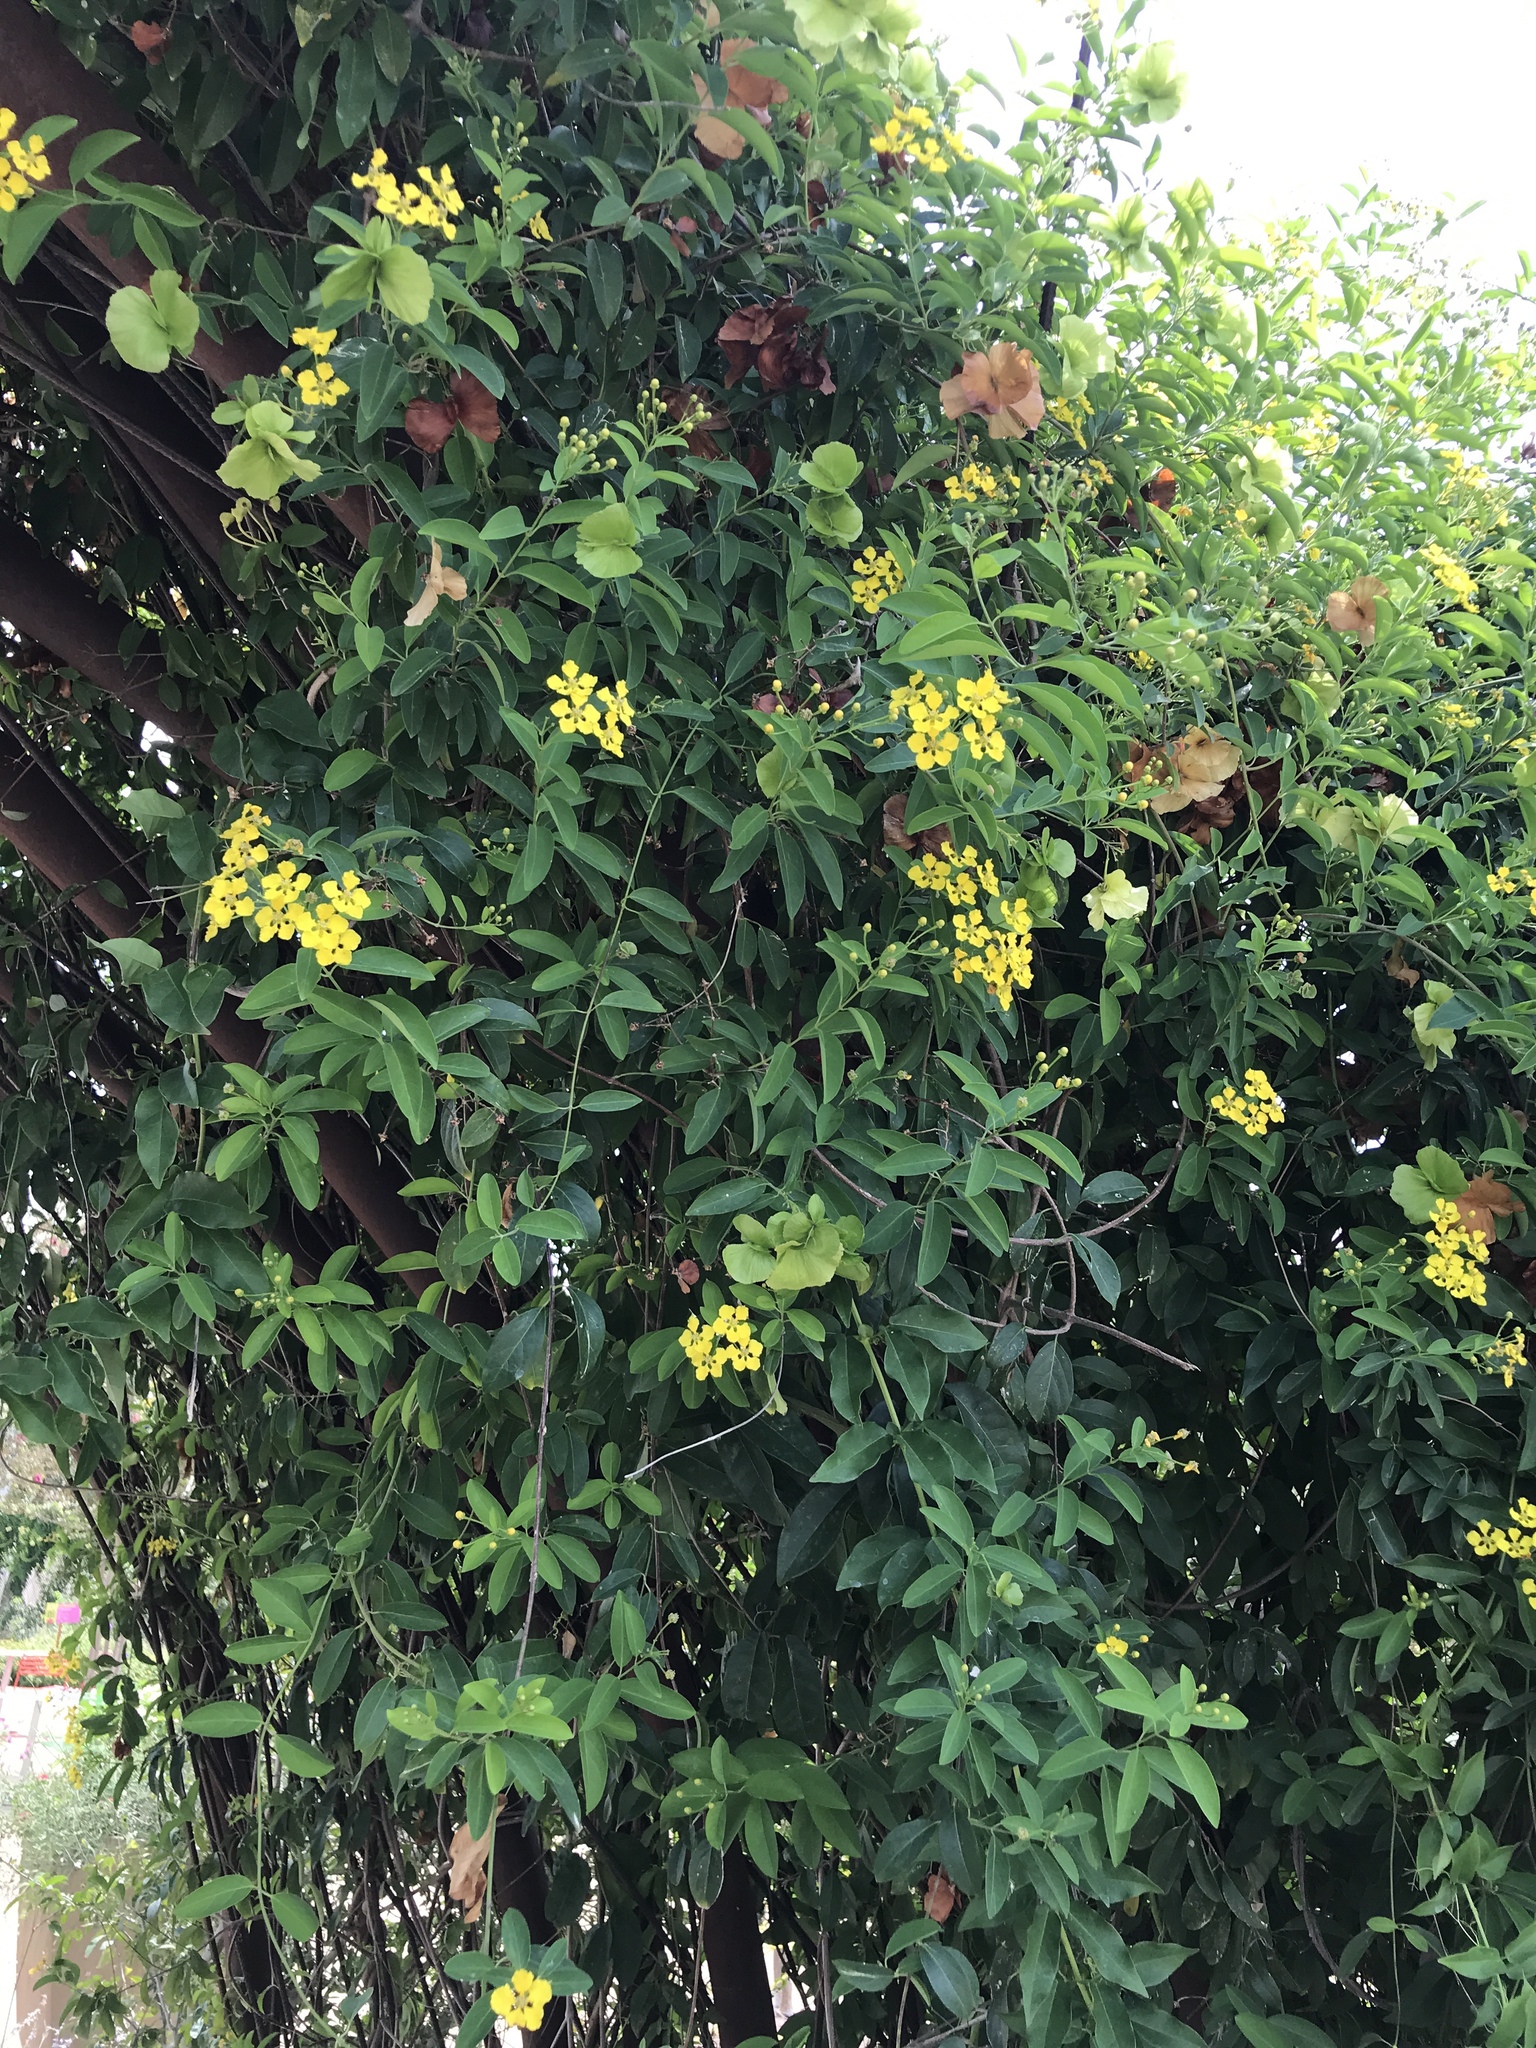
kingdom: Plantae
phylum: Tracheophyta
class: Magnoliopsida
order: Malpighiales
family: Malpighiaceae
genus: Callaeum
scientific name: Callaeum macropterum
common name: Mexican butterfly-vine
